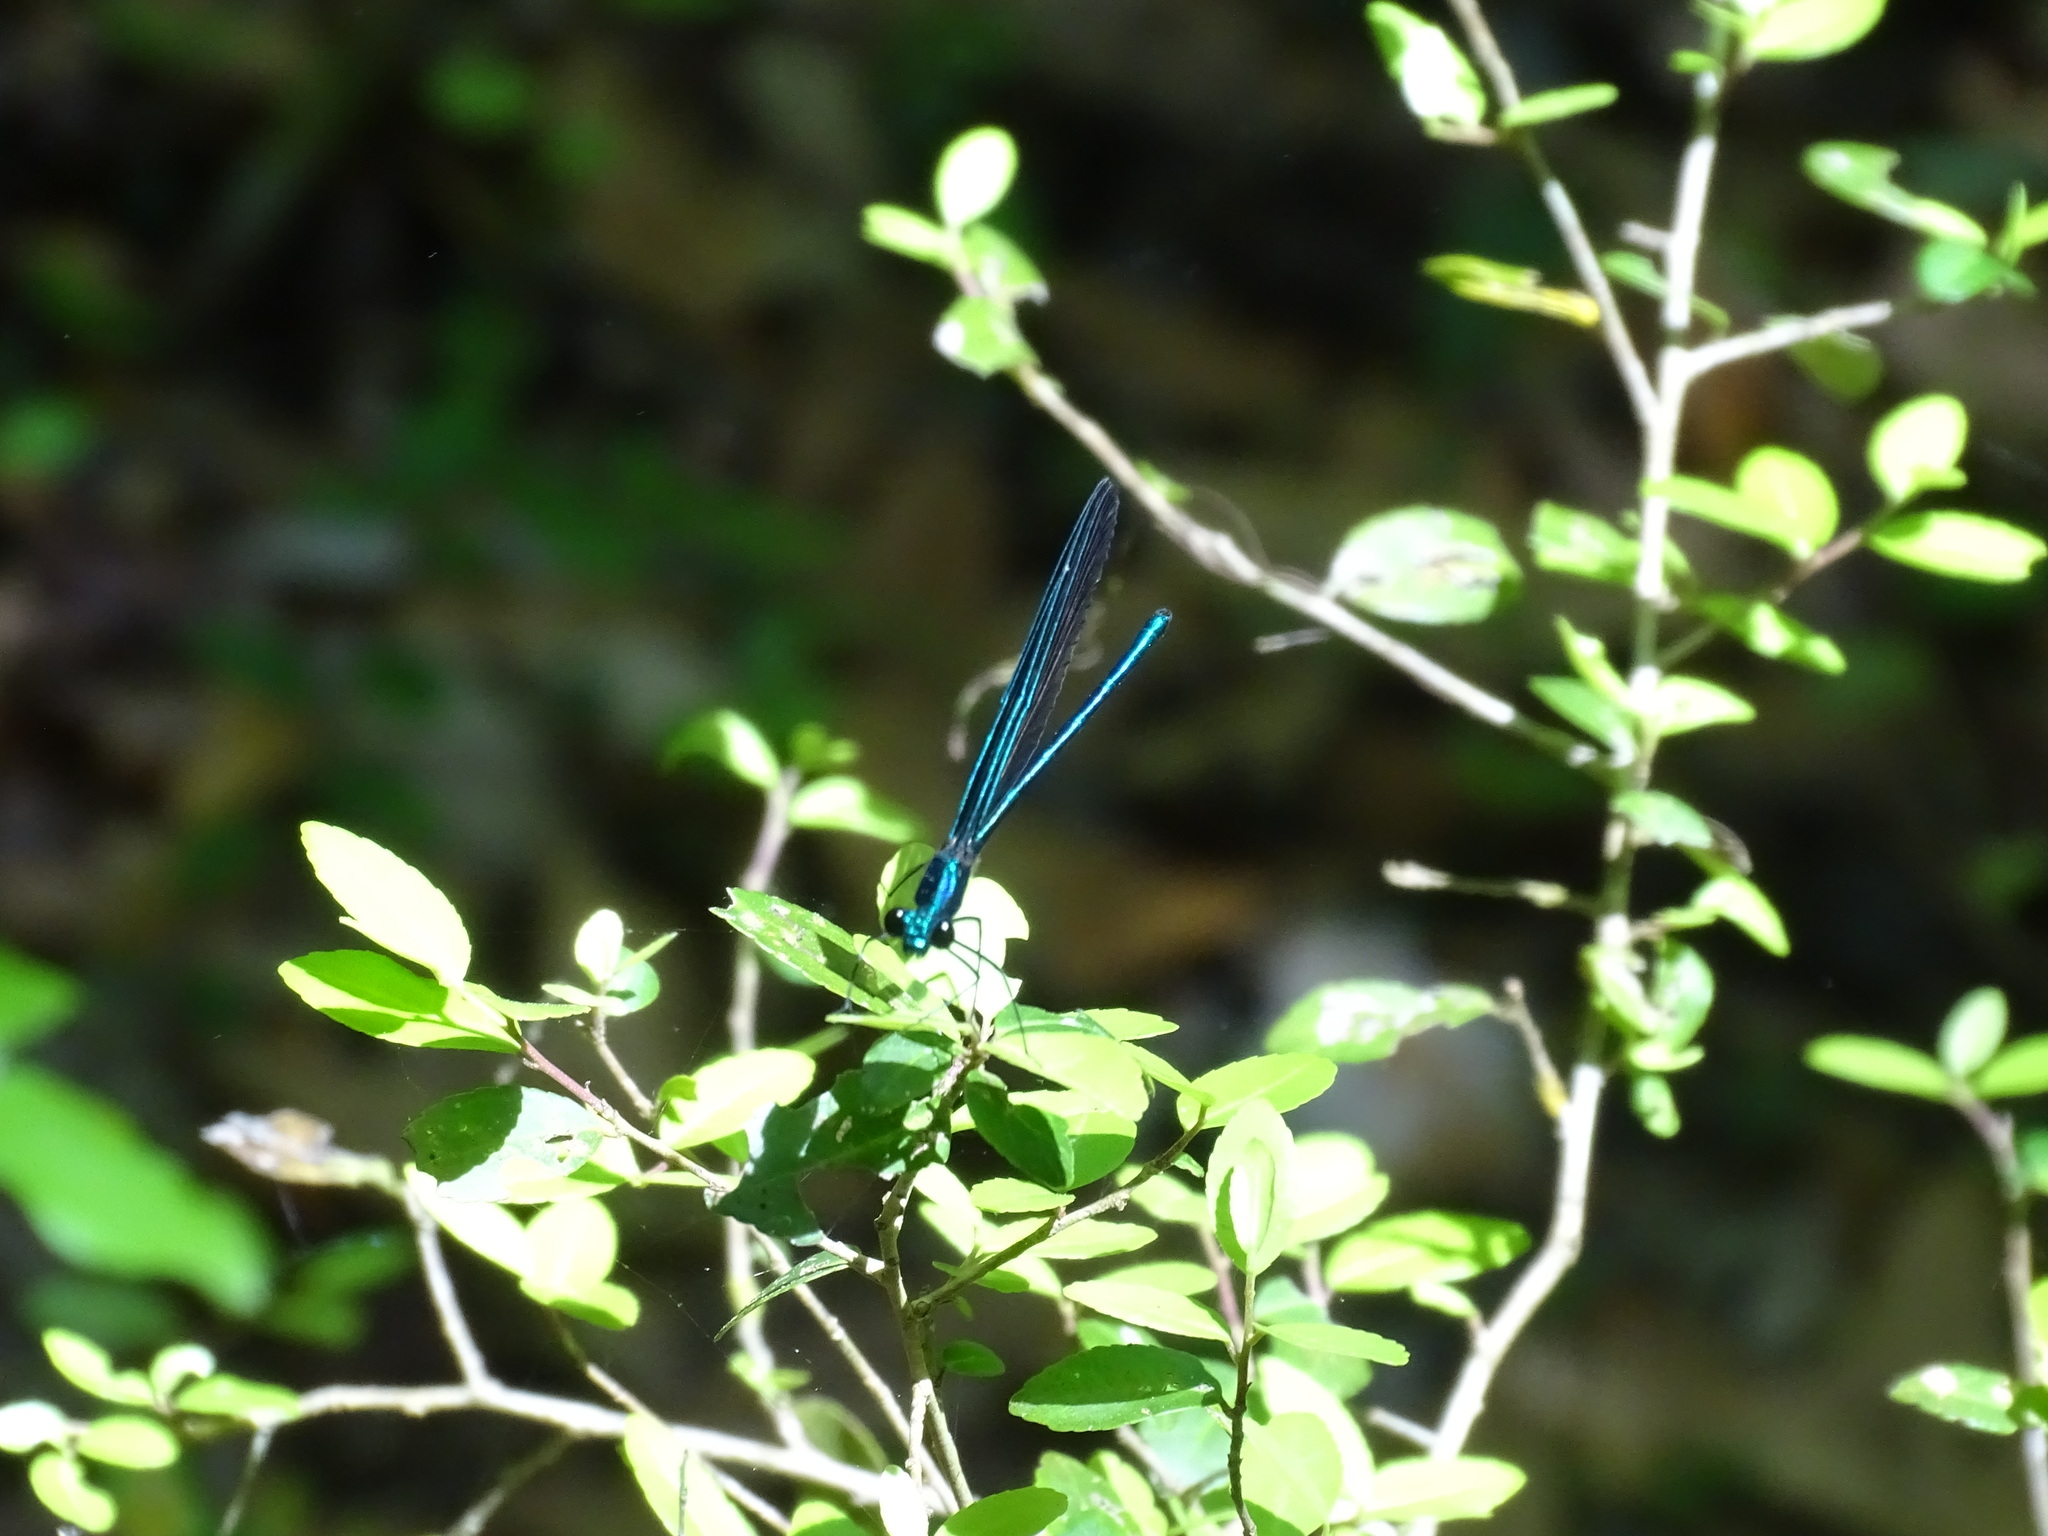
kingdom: Animalia
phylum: Arthropoda
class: Insecta
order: Odonata
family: Calopterygidae
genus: Calopteryx
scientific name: Calopteryx maculata
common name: Ebony jewelwing
